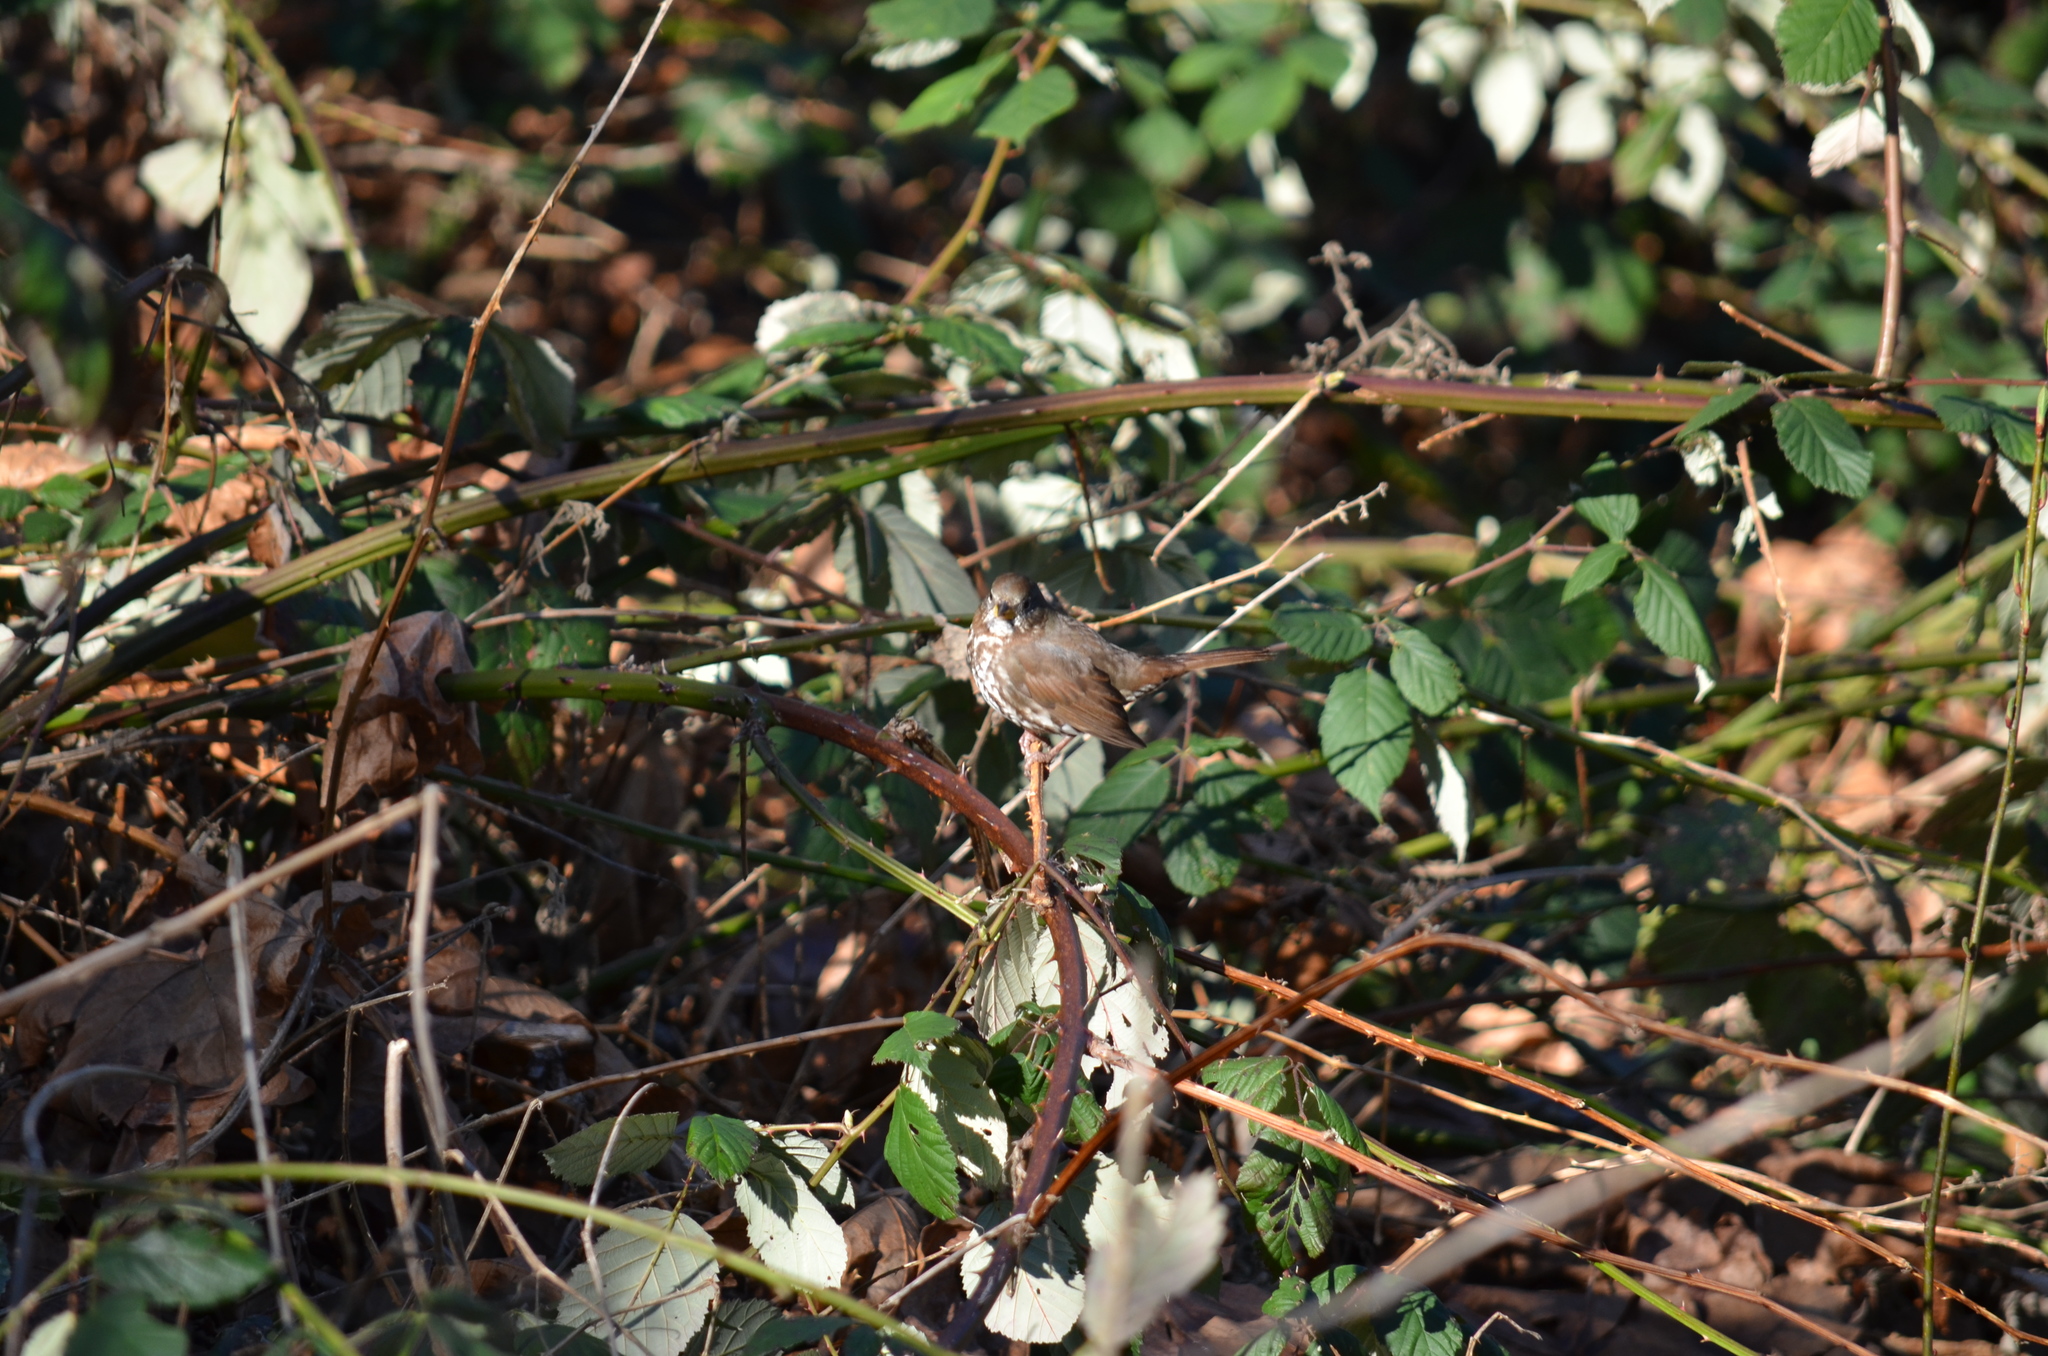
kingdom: Animalia
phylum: Chordata
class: Aves
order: Passeriformes
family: Passerellidae
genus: Passerella
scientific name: Passerella iliaca
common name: Fox sparrow
